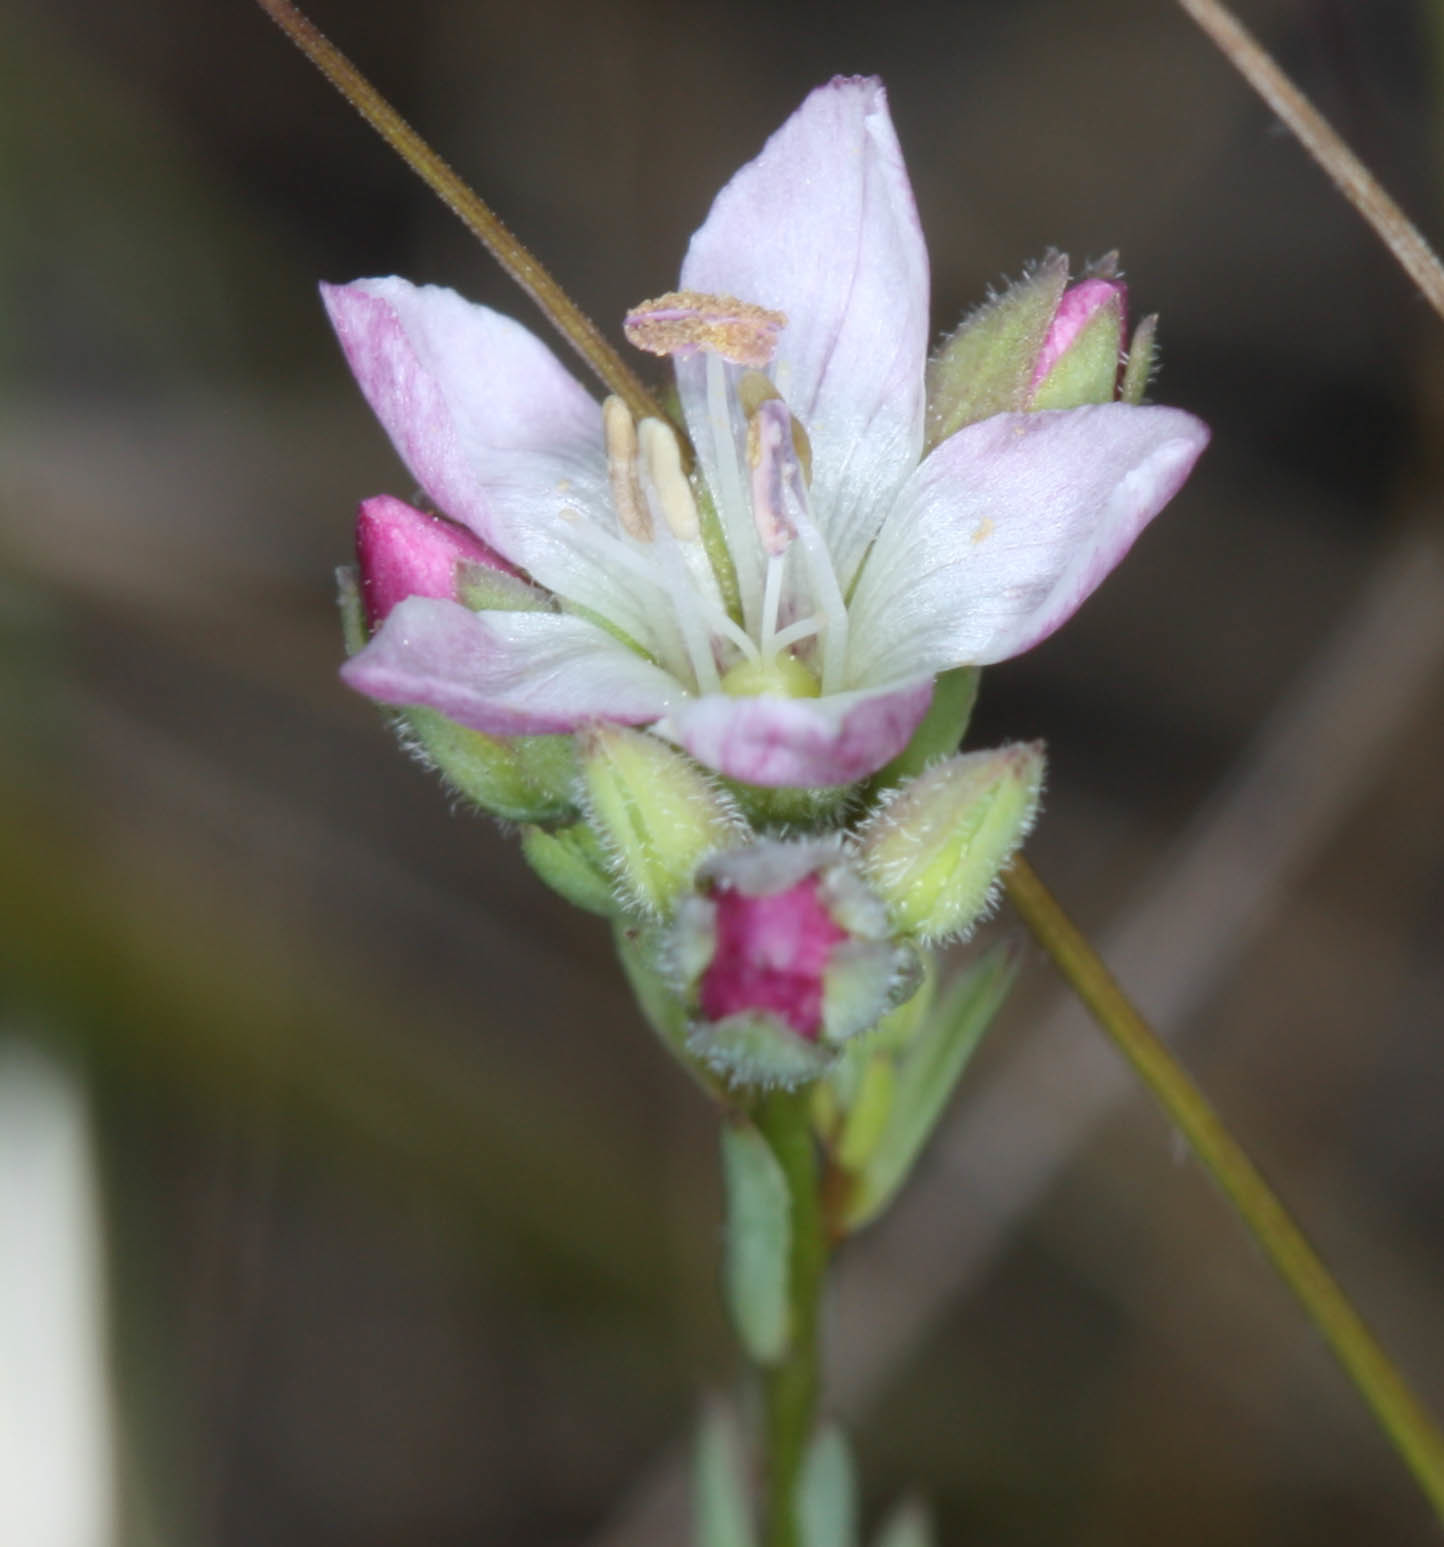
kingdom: Plantae
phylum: Tracheophyta
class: Magnoliopsida
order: Malpighiales
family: Linaceae
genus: Hesperolinon
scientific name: Hesperolinon congestum
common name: Marin dwarf-flax
